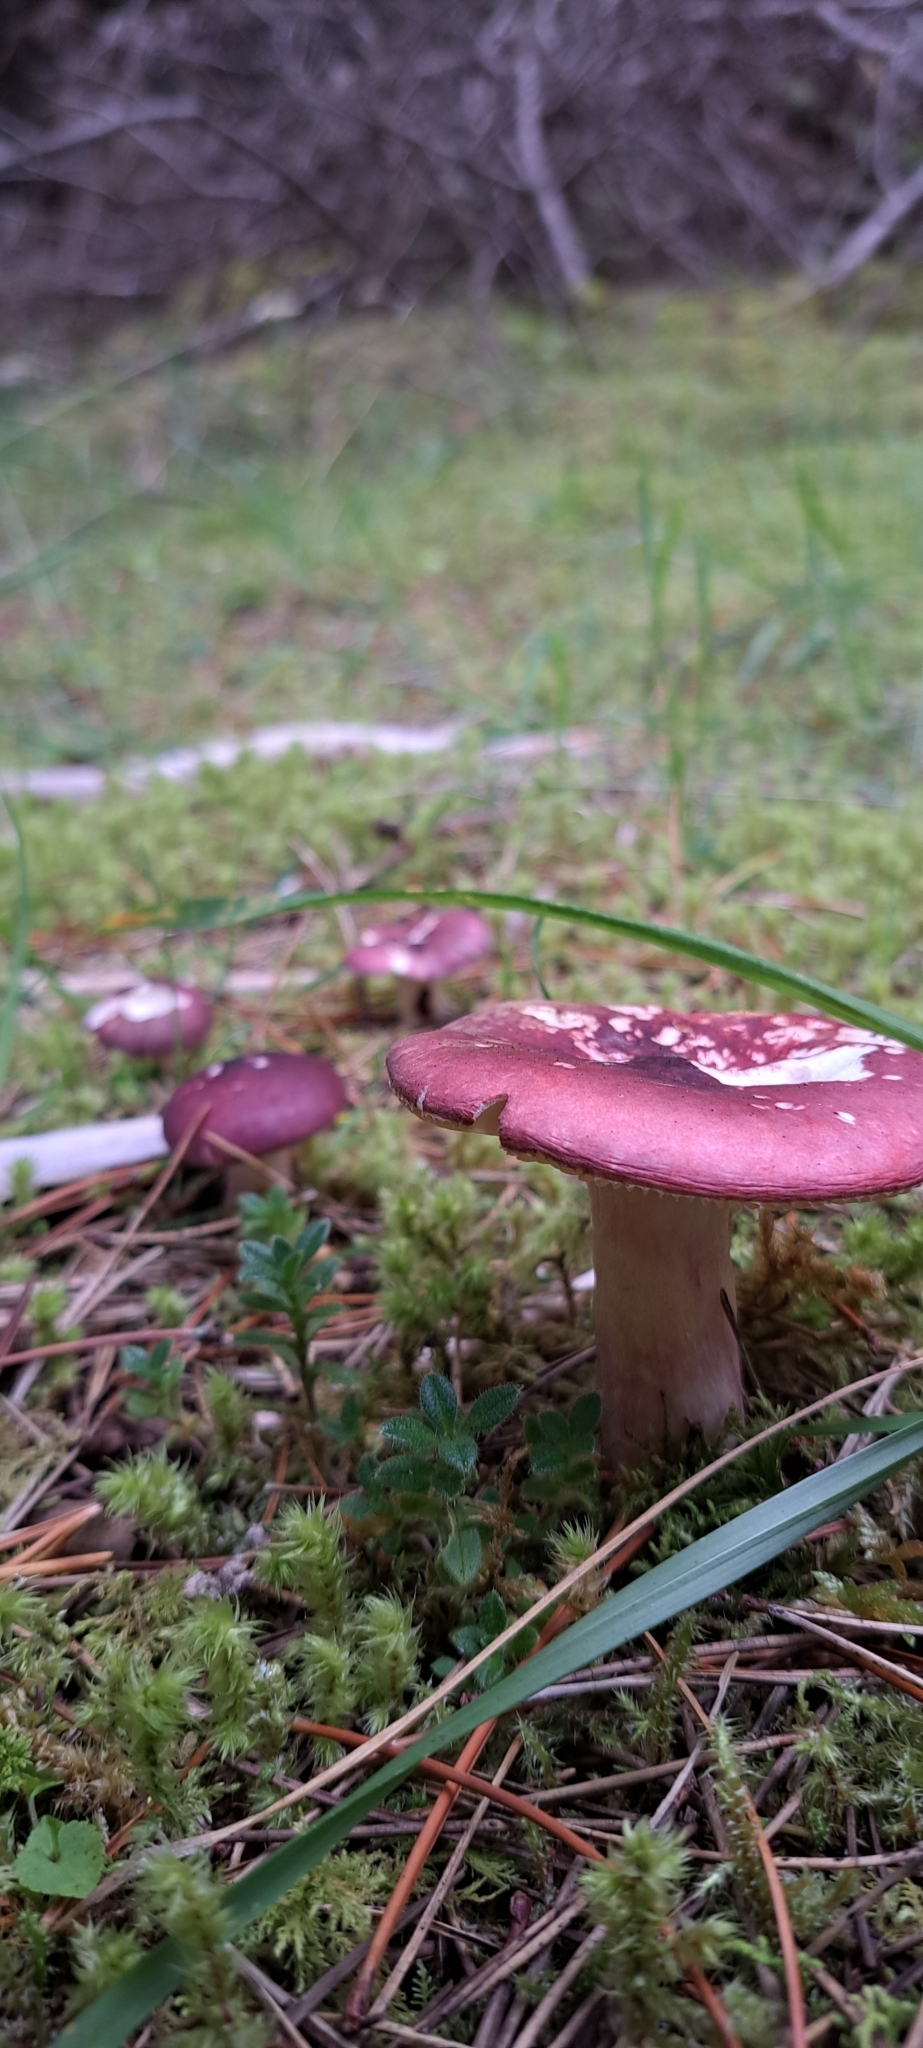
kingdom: Fungi
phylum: Basidiomycota
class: Agaricomycetes
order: Russulales
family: Russulaceae
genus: Russula
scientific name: Russula sardonia
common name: Primrose brittlegill
